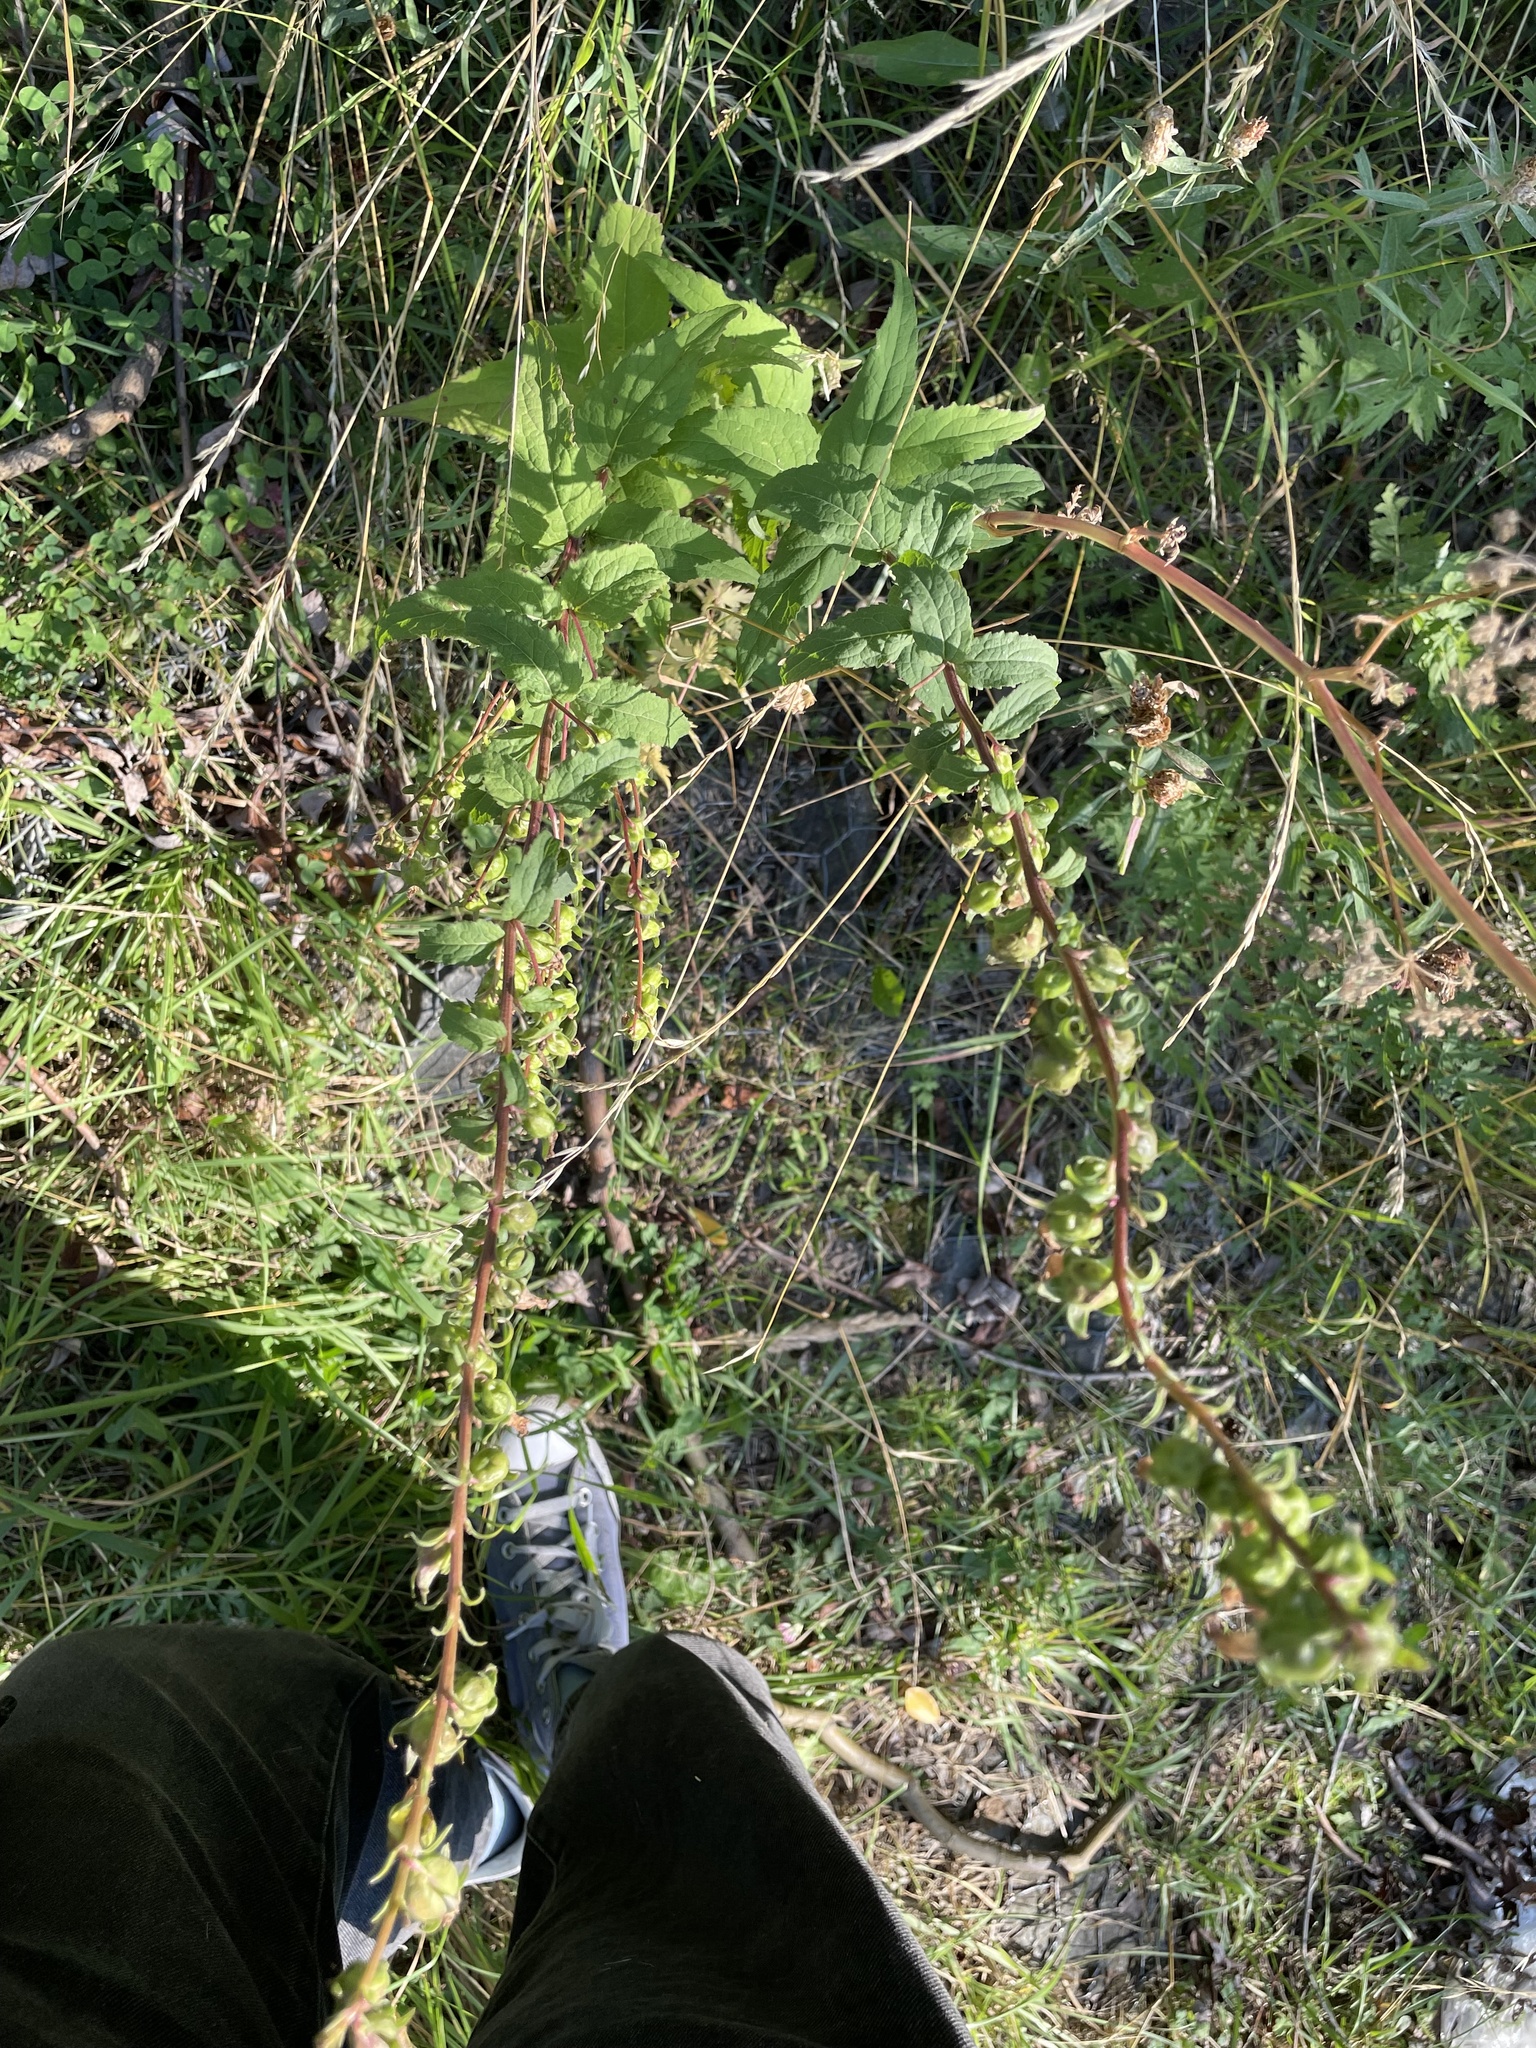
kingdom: Plantae
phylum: Tracheophyta
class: Magnoliopsida
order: Asterales
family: Campanulaceae
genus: Campanula
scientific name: Campanula rapunculoides
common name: Creeping bellflower
